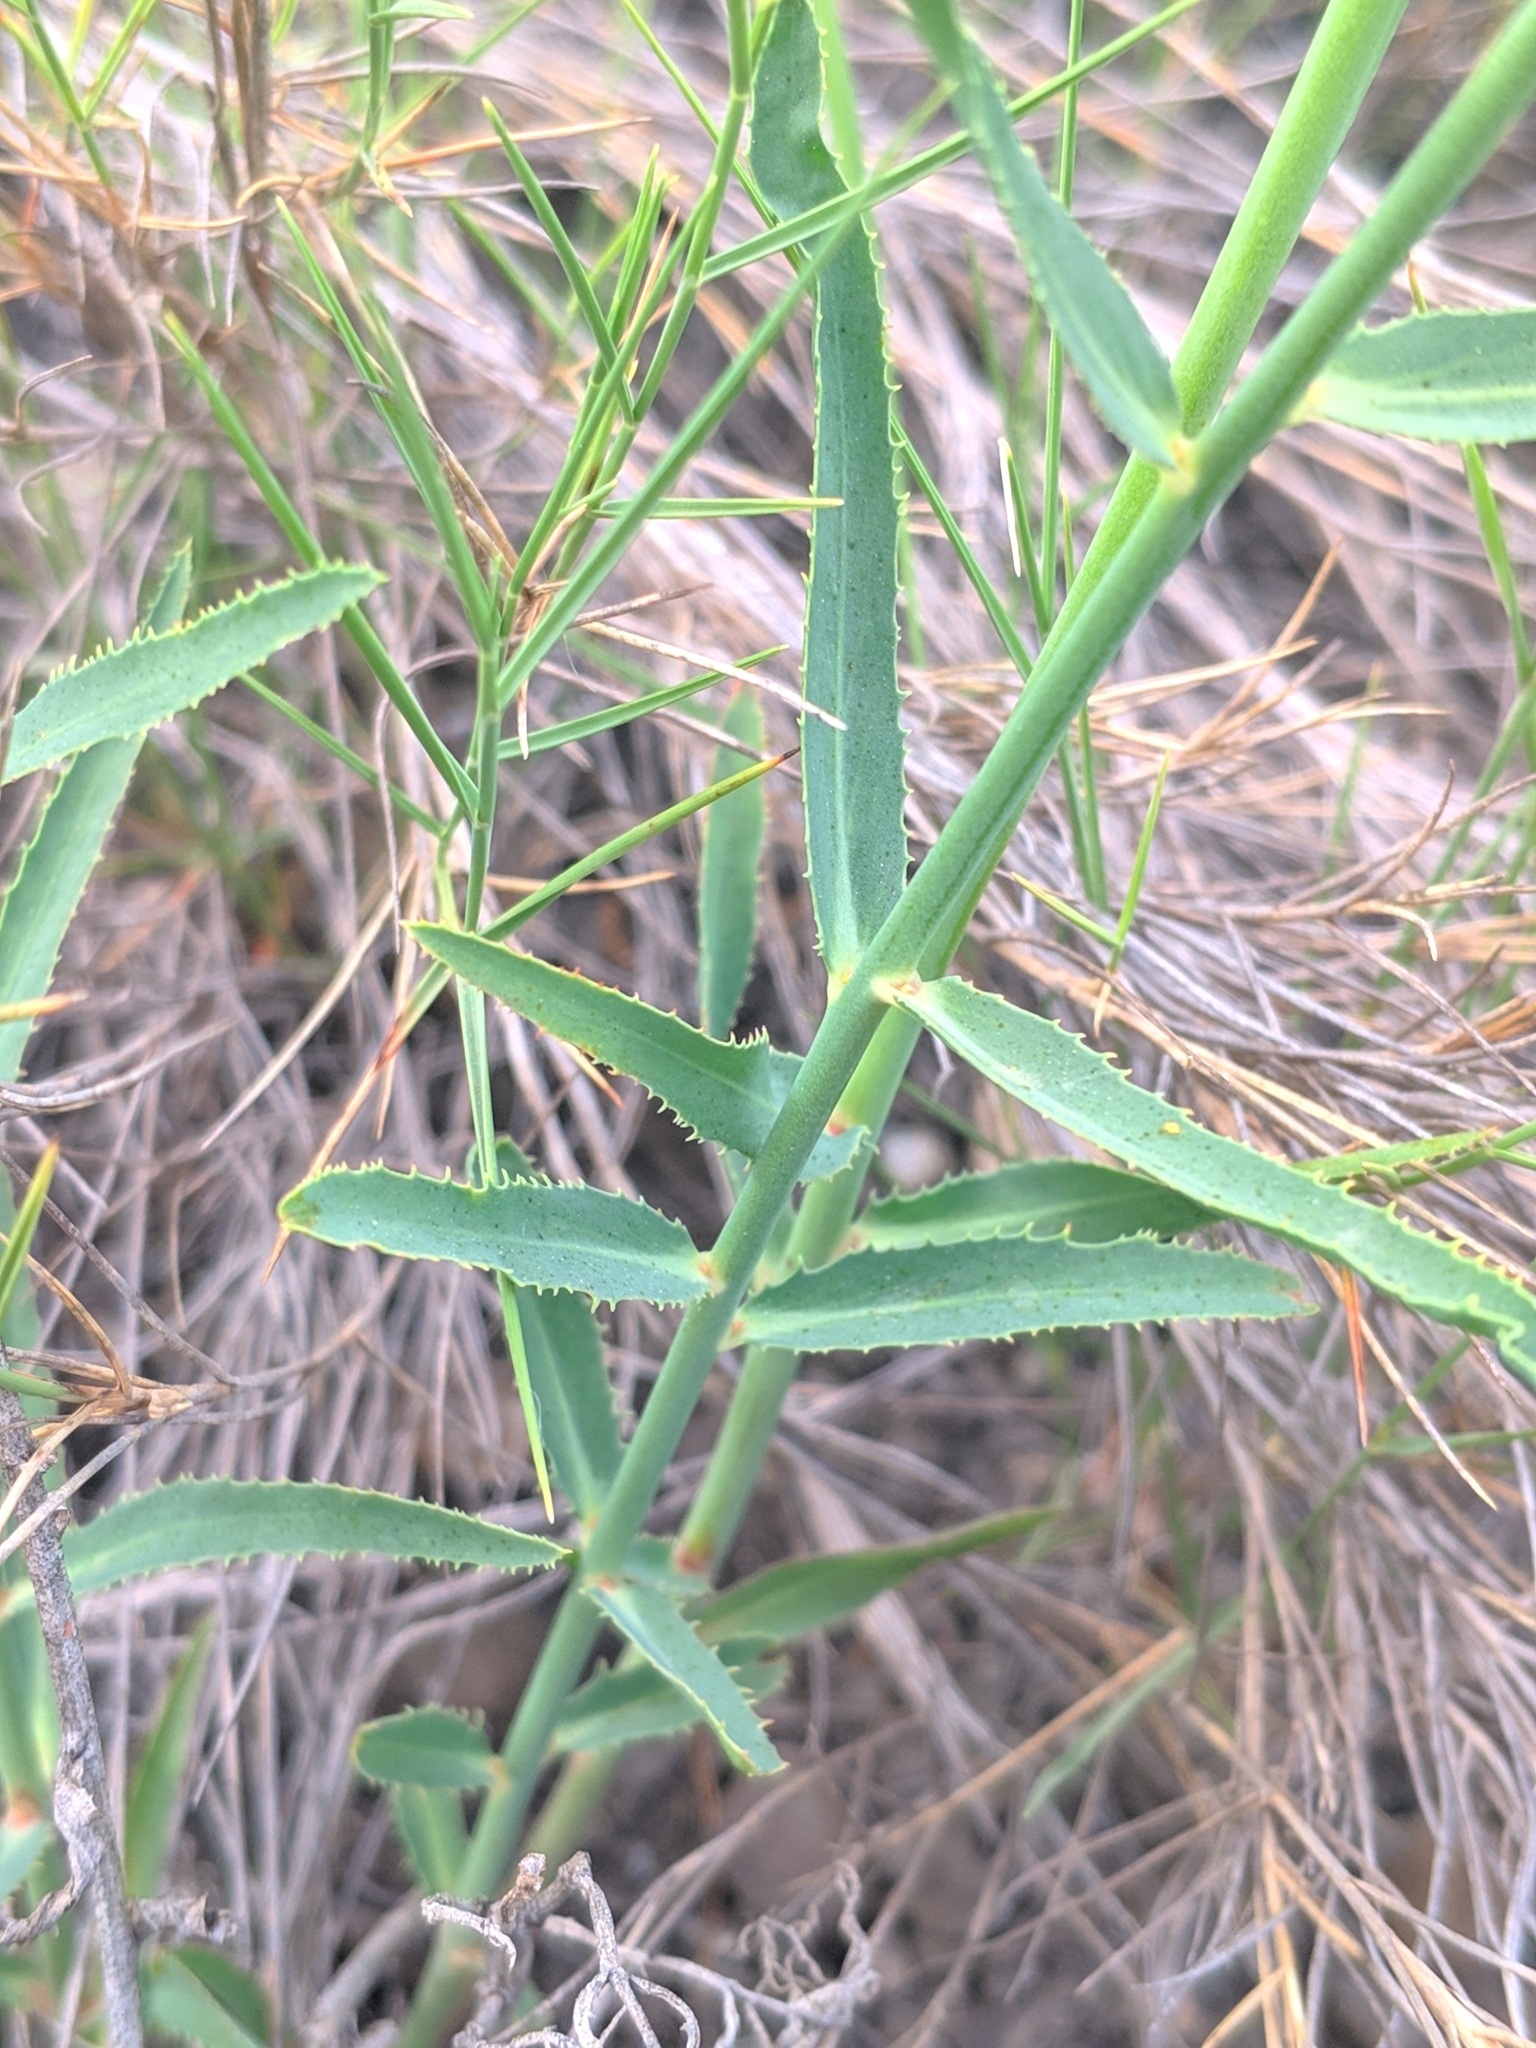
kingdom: Plantae
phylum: Tracheophyta
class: Magnoliopsida
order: Malpighiales
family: Euphorbiaceae
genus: Euphorbia
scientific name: Euphorbia serrata
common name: Serrate spurge
